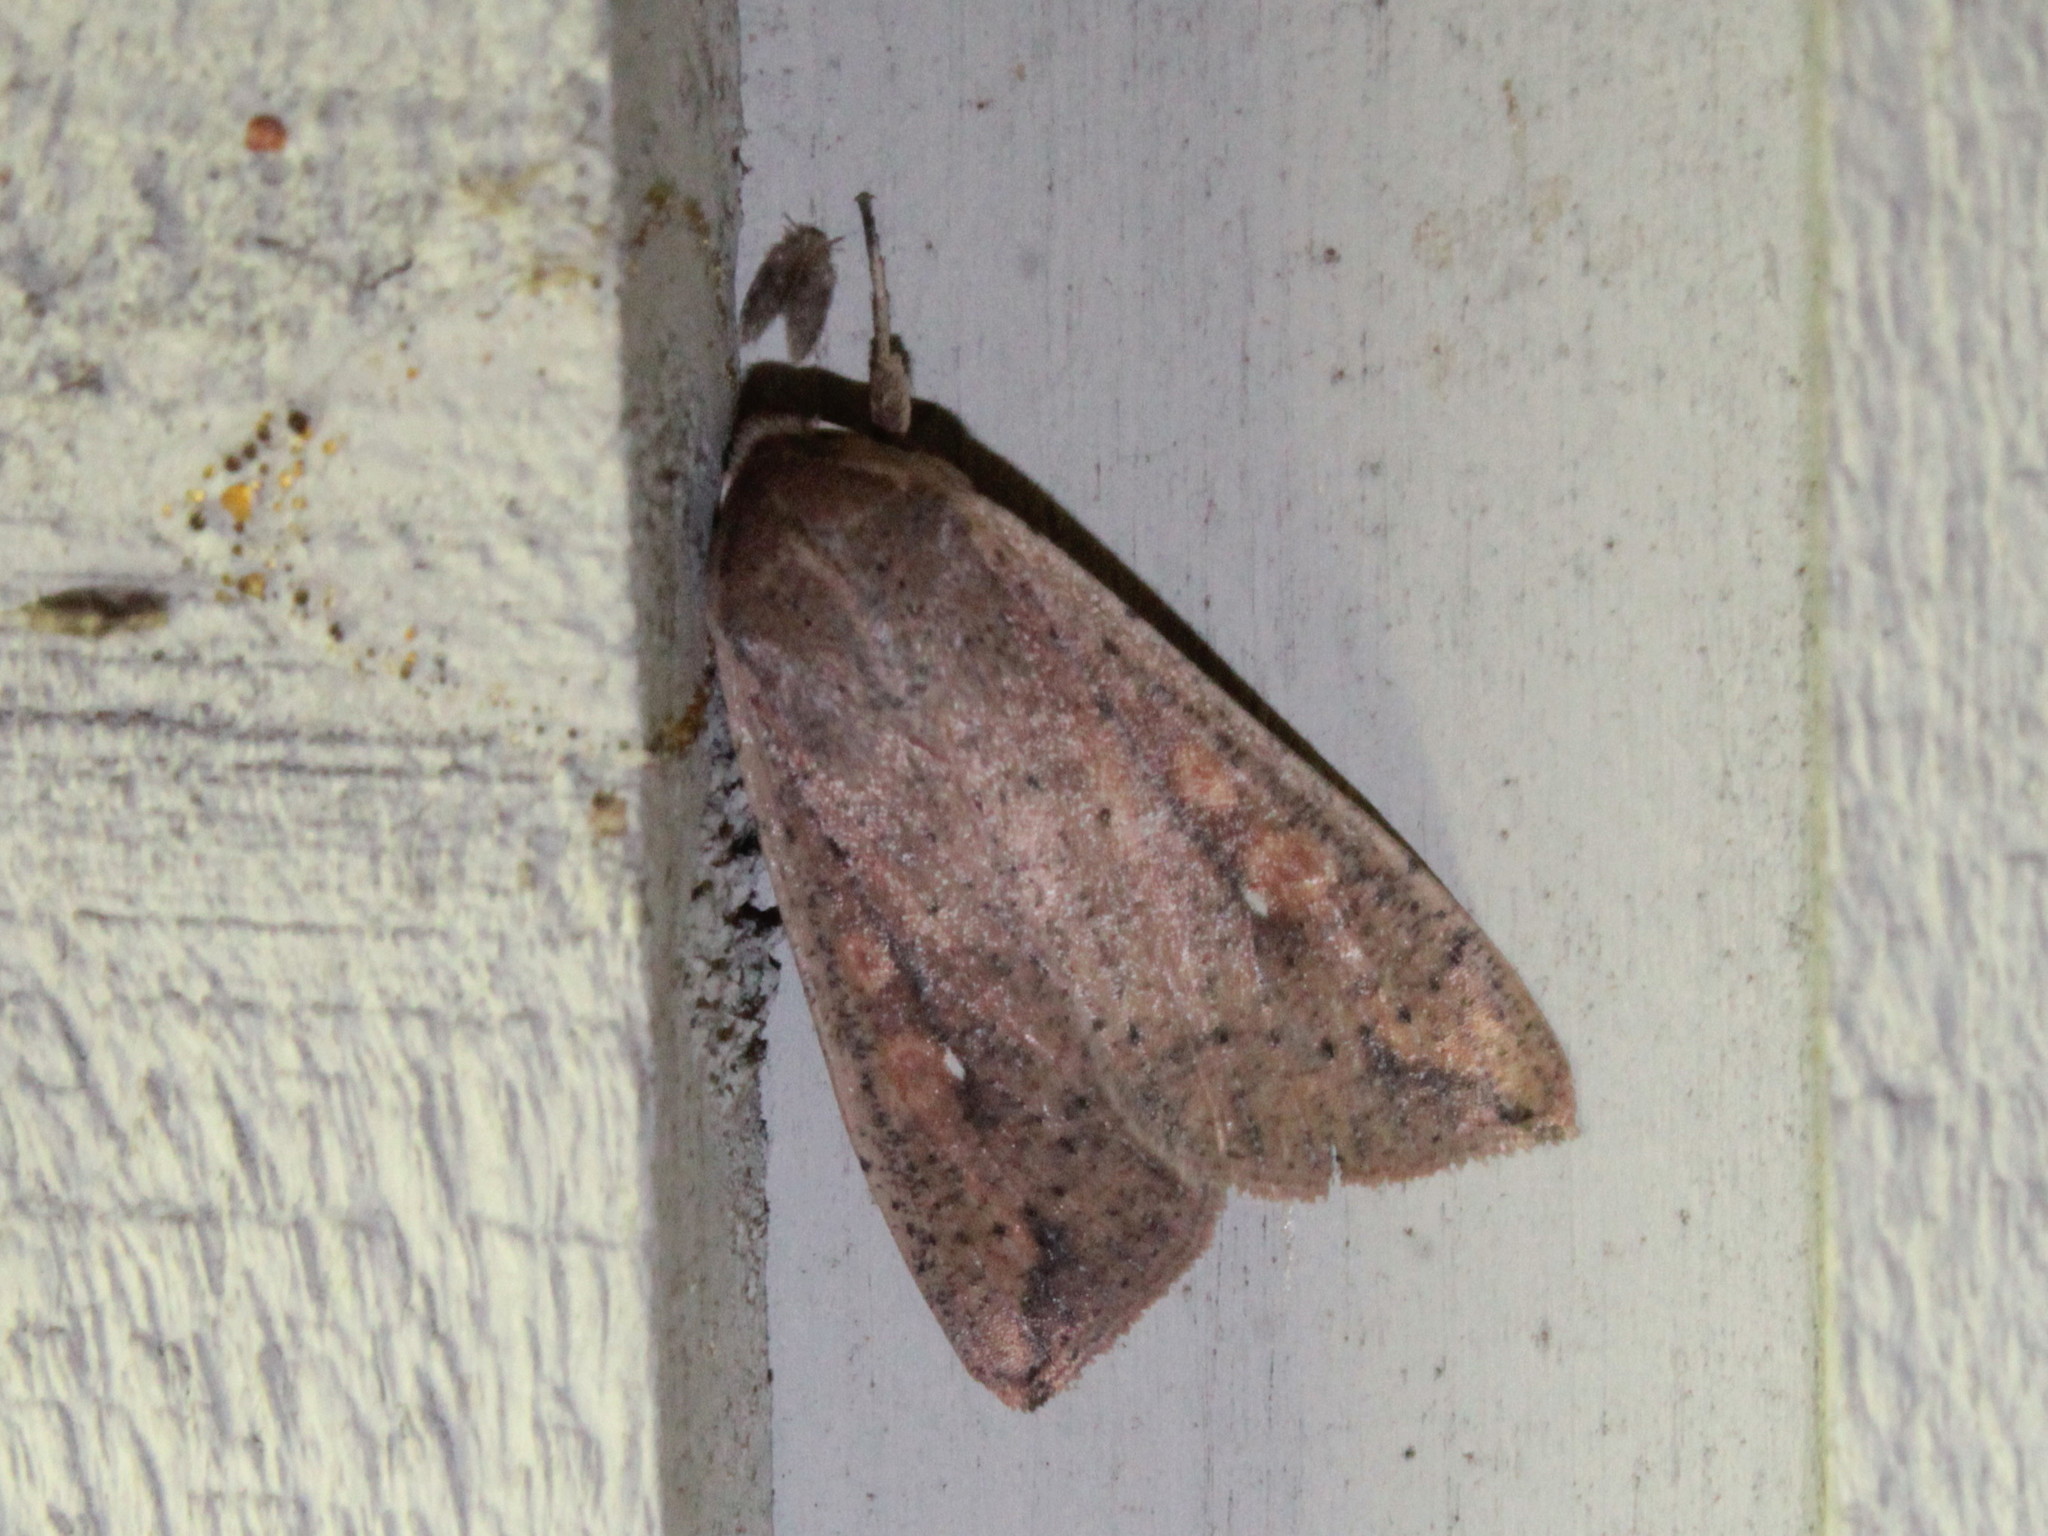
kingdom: Animalia
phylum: Arthropoda
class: Insecta
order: Lepidoptera
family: Noctuidae
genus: Mythimna
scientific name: Mythimna unipuncta
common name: White-speck
